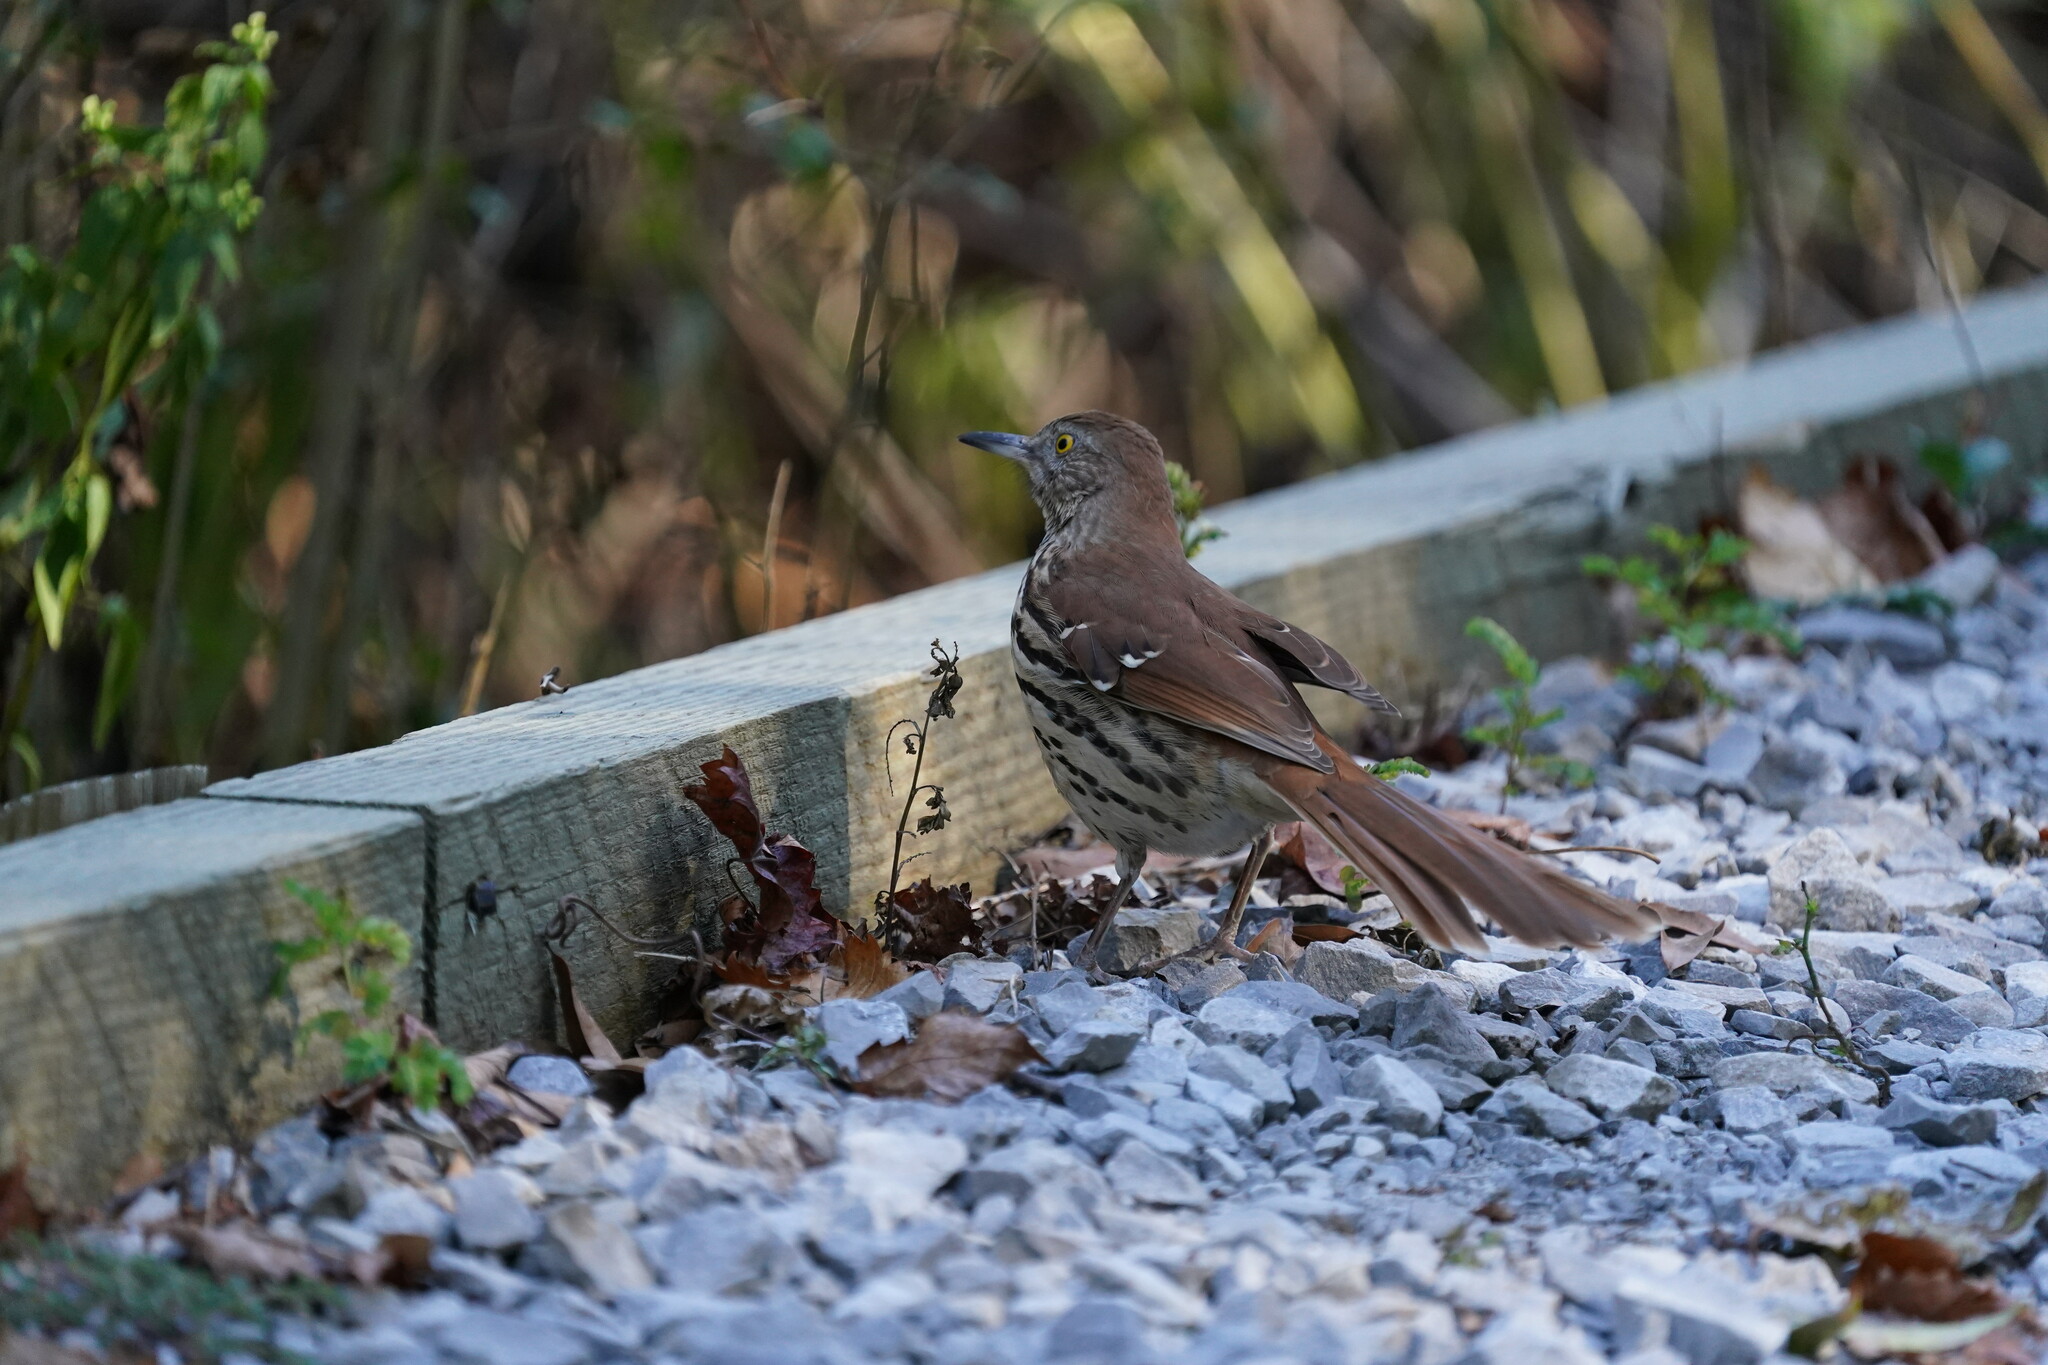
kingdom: Animalia
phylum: Chordata
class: Aves
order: Passeriformes
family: Mimidae
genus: Toxostoma
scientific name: Toxostoma rufum
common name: Brown thrasher
